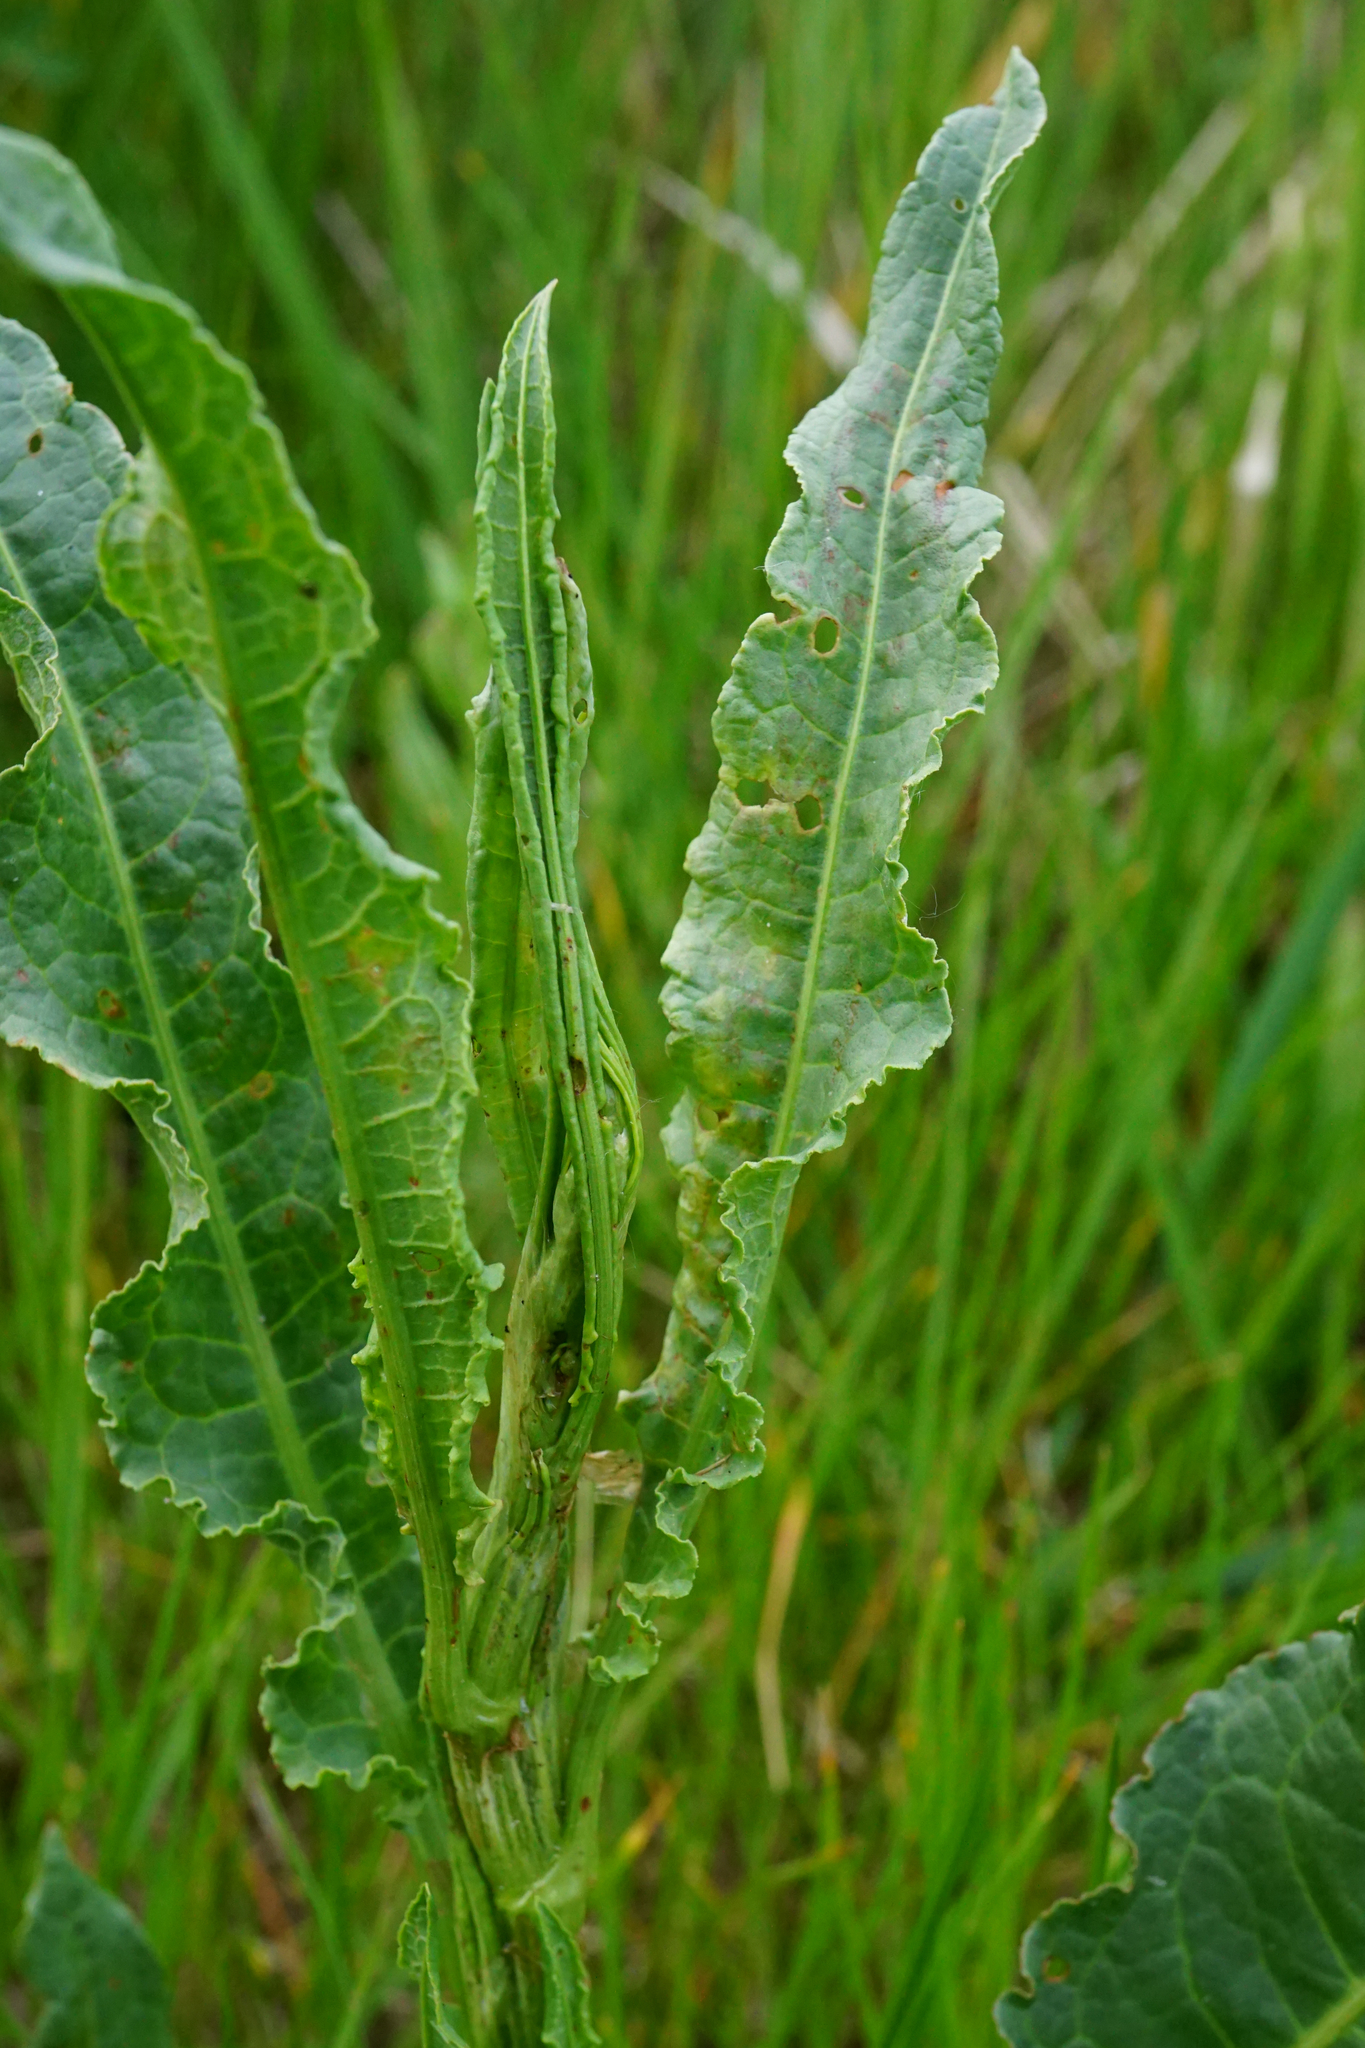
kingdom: Plantae
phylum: Tracheophyta
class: Magnoliopsida
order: Caryophyllales
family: Polygonaceae
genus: Rumex
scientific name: Rumex crispus
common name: Curled dock
